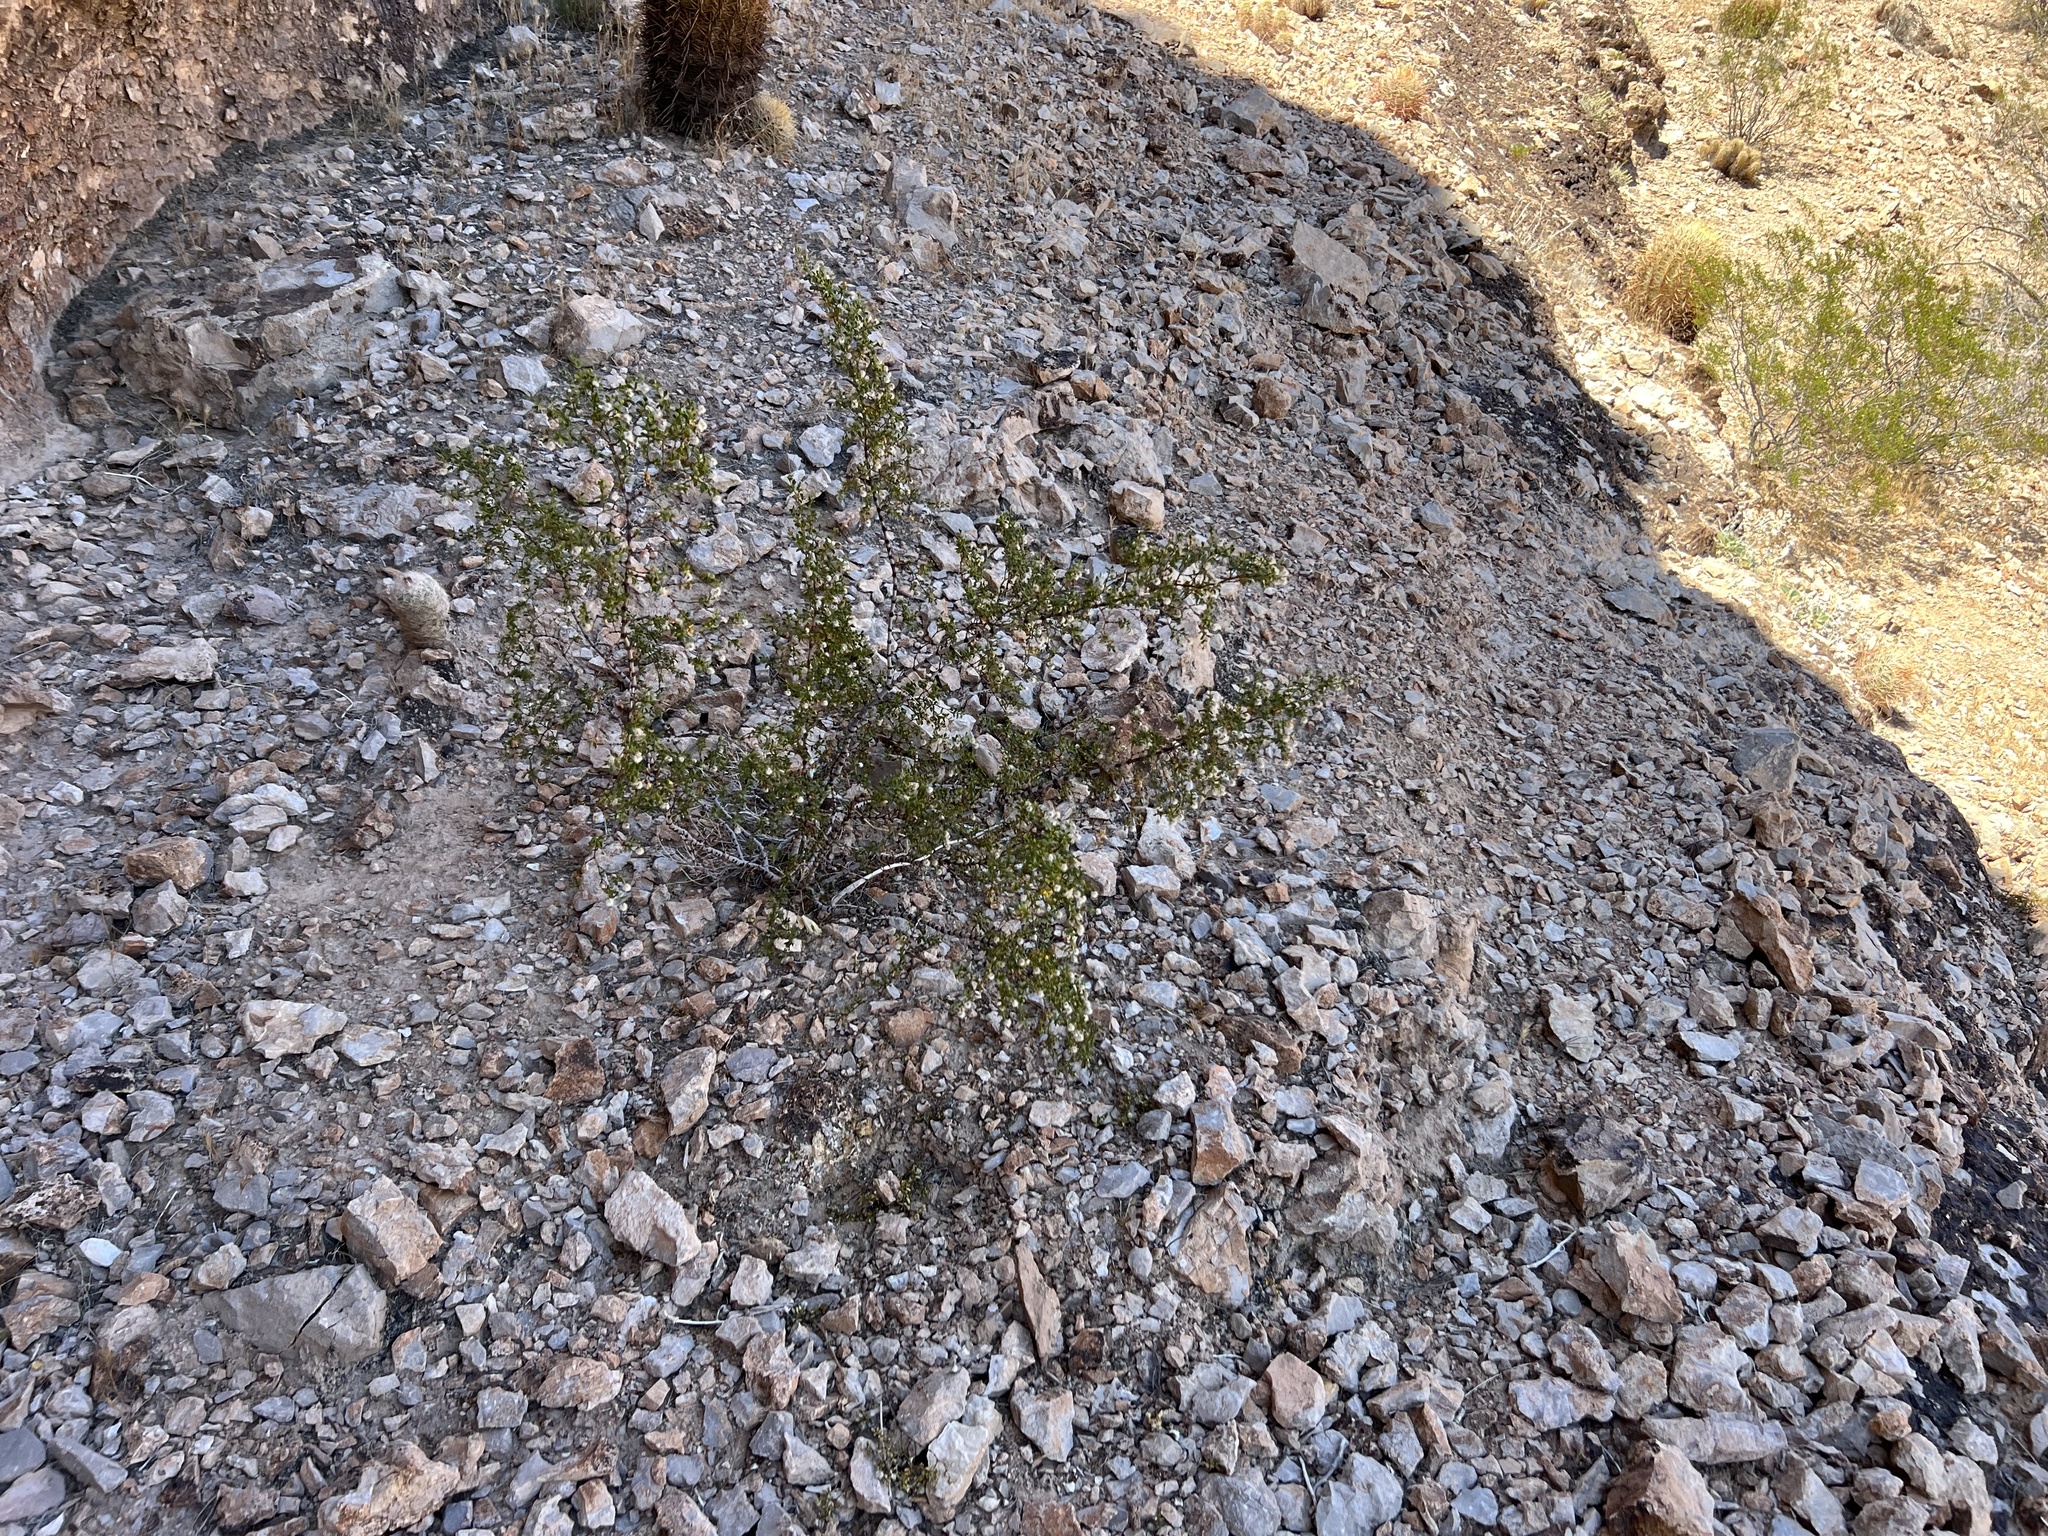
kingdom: Plantae
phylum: Tracheophyta
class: Magnoliopsida
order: Zygophyllales
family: Zygophyllaceae
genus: Larrea
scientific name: Larrea tridentata
